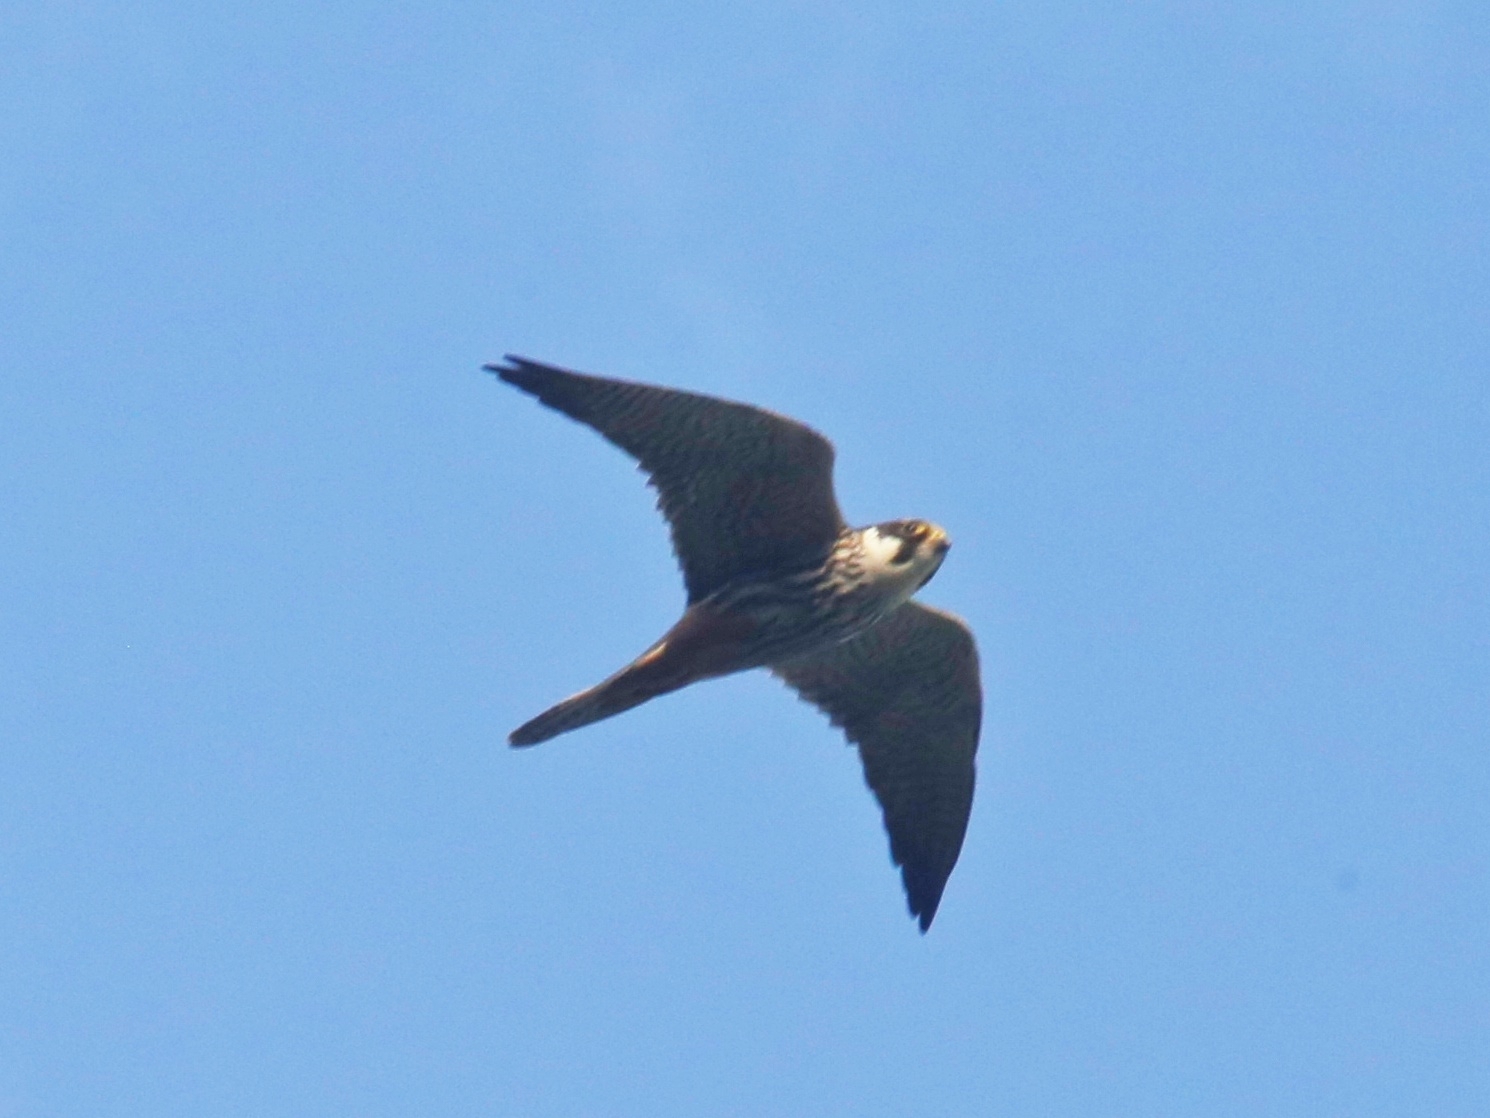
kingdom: Animalia
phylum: Chordata
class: Aves
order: Falconiformes
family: Falconidae
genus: Falco
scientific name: Falco subbuteo
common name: Eurasian hobby
